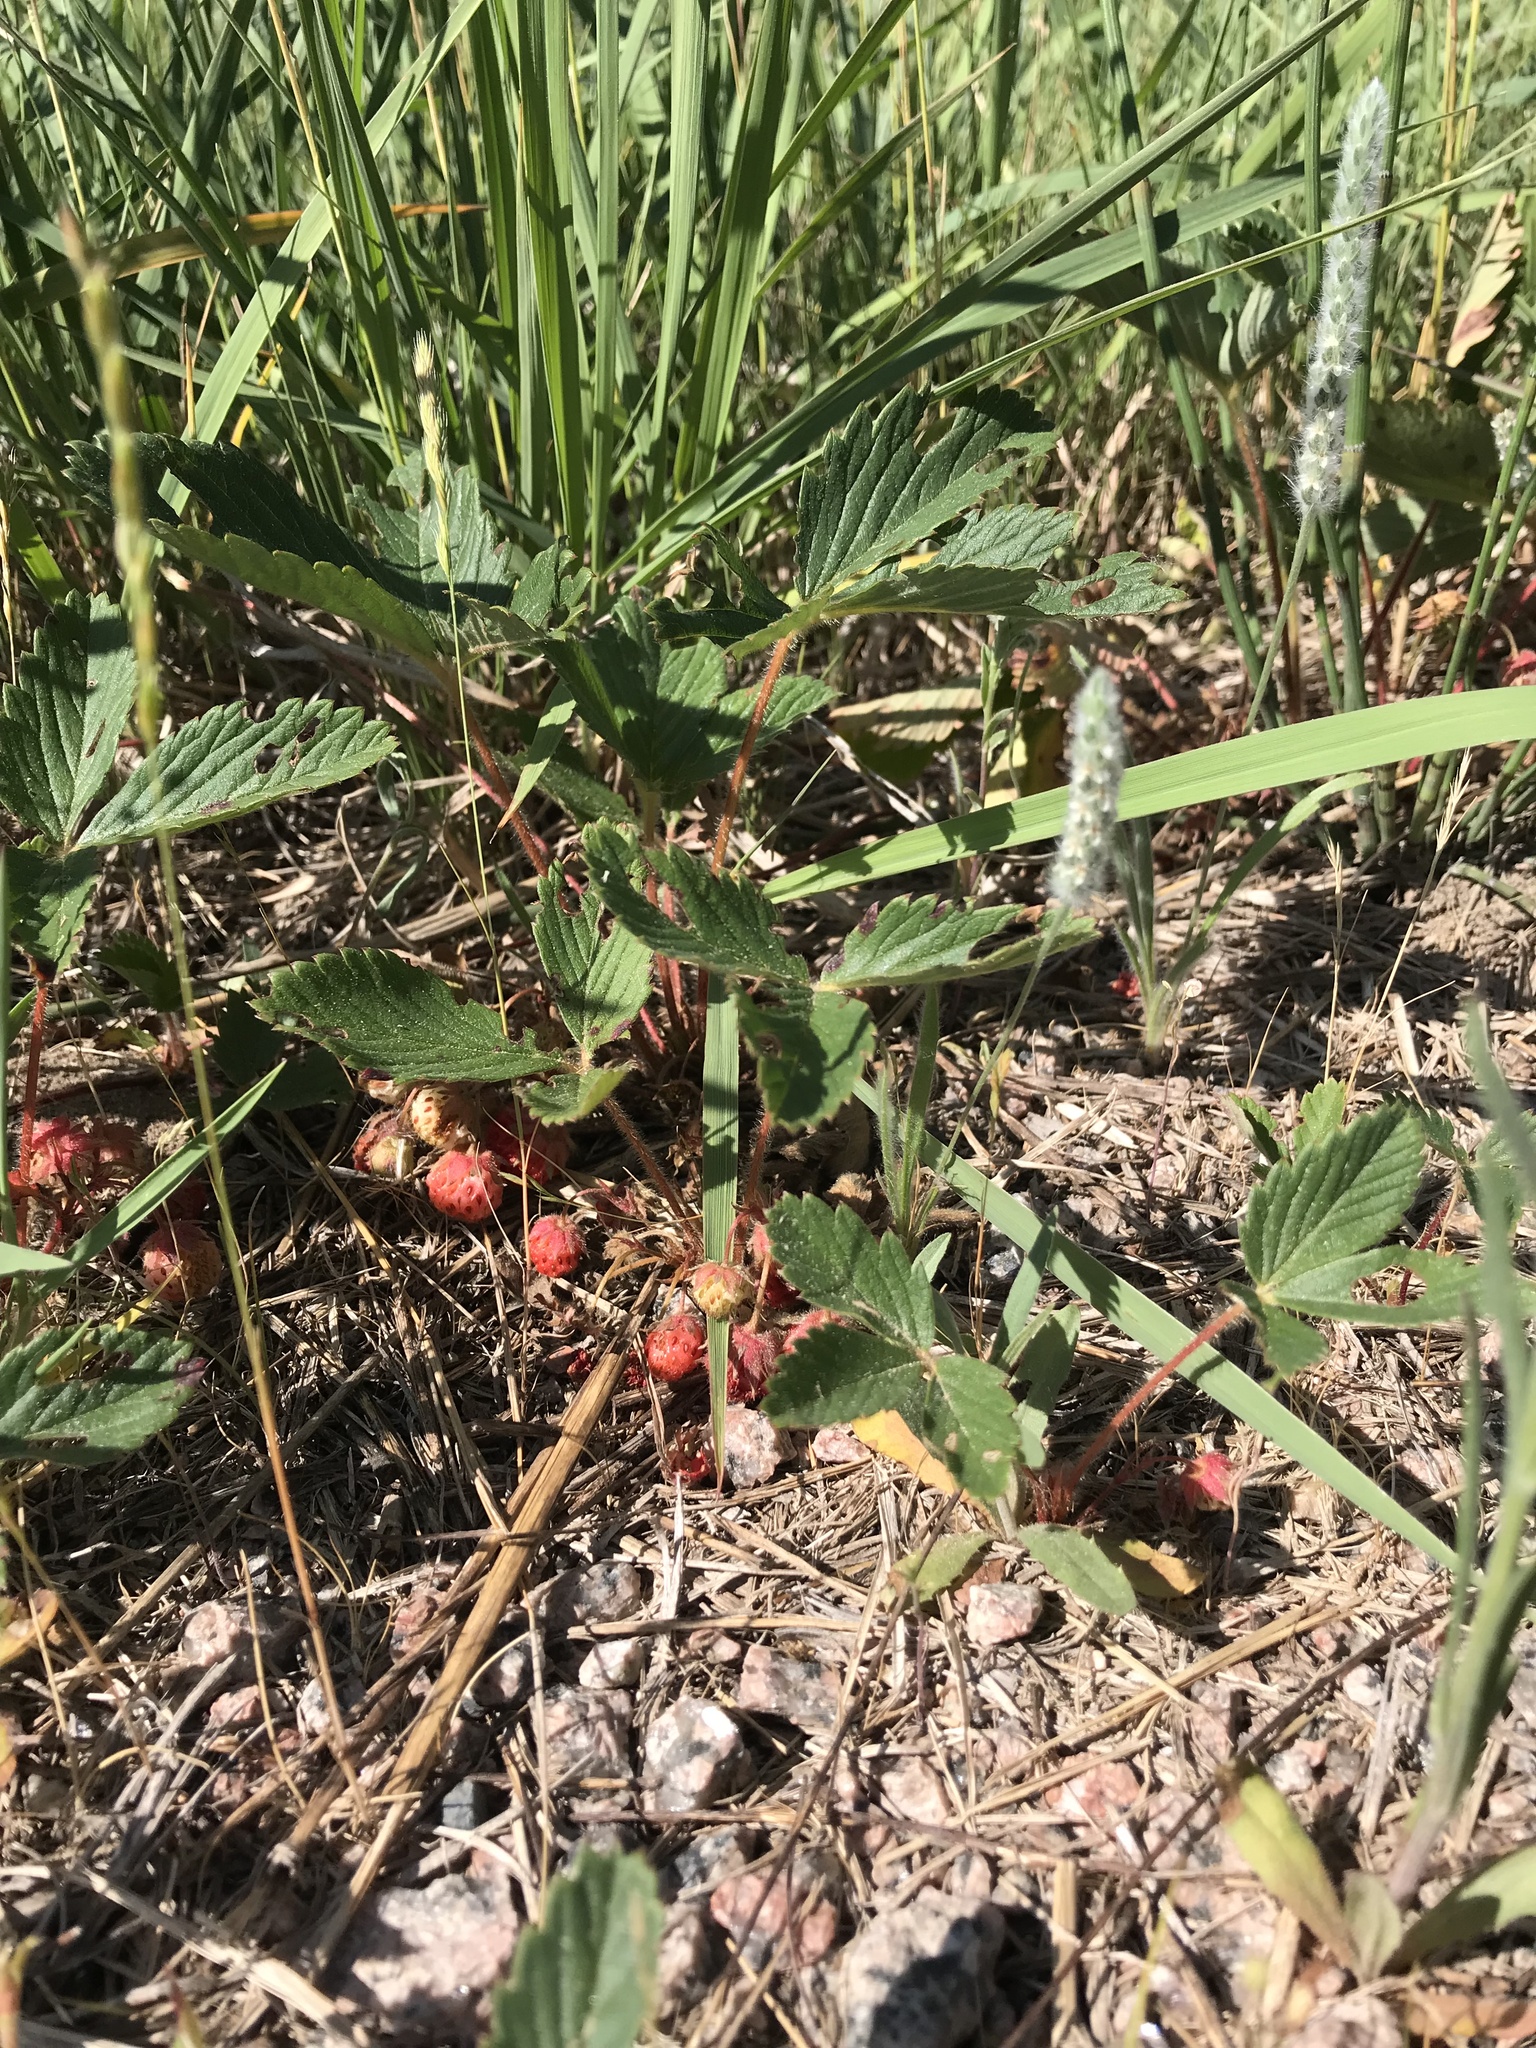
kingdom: Plantae
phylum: Tracheophyta
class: Magnoliopsida
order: Rosales
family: Rosaceae
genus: Fragaria
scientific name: Fragaria virginiana
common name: Thickleaved wild strawberry
